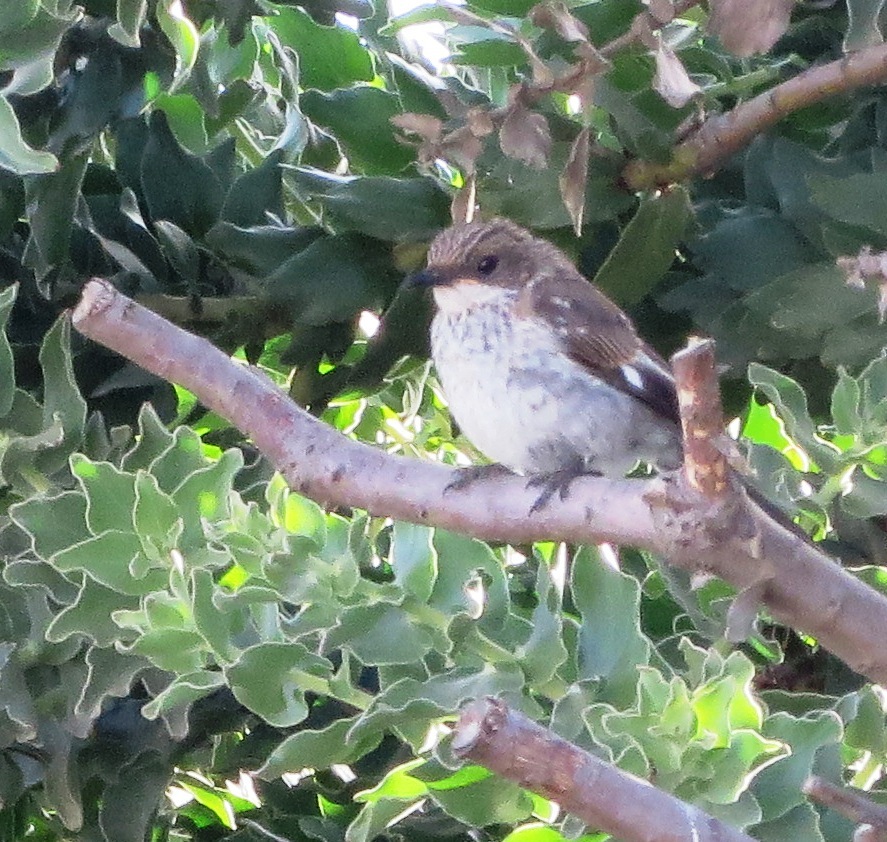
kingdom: Animalia
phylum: Chordata
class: Aves
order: Passeriformes
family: Muscicapidae
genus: Sigelus
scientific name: Sigelus silens
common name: Fiscal flycatcher
